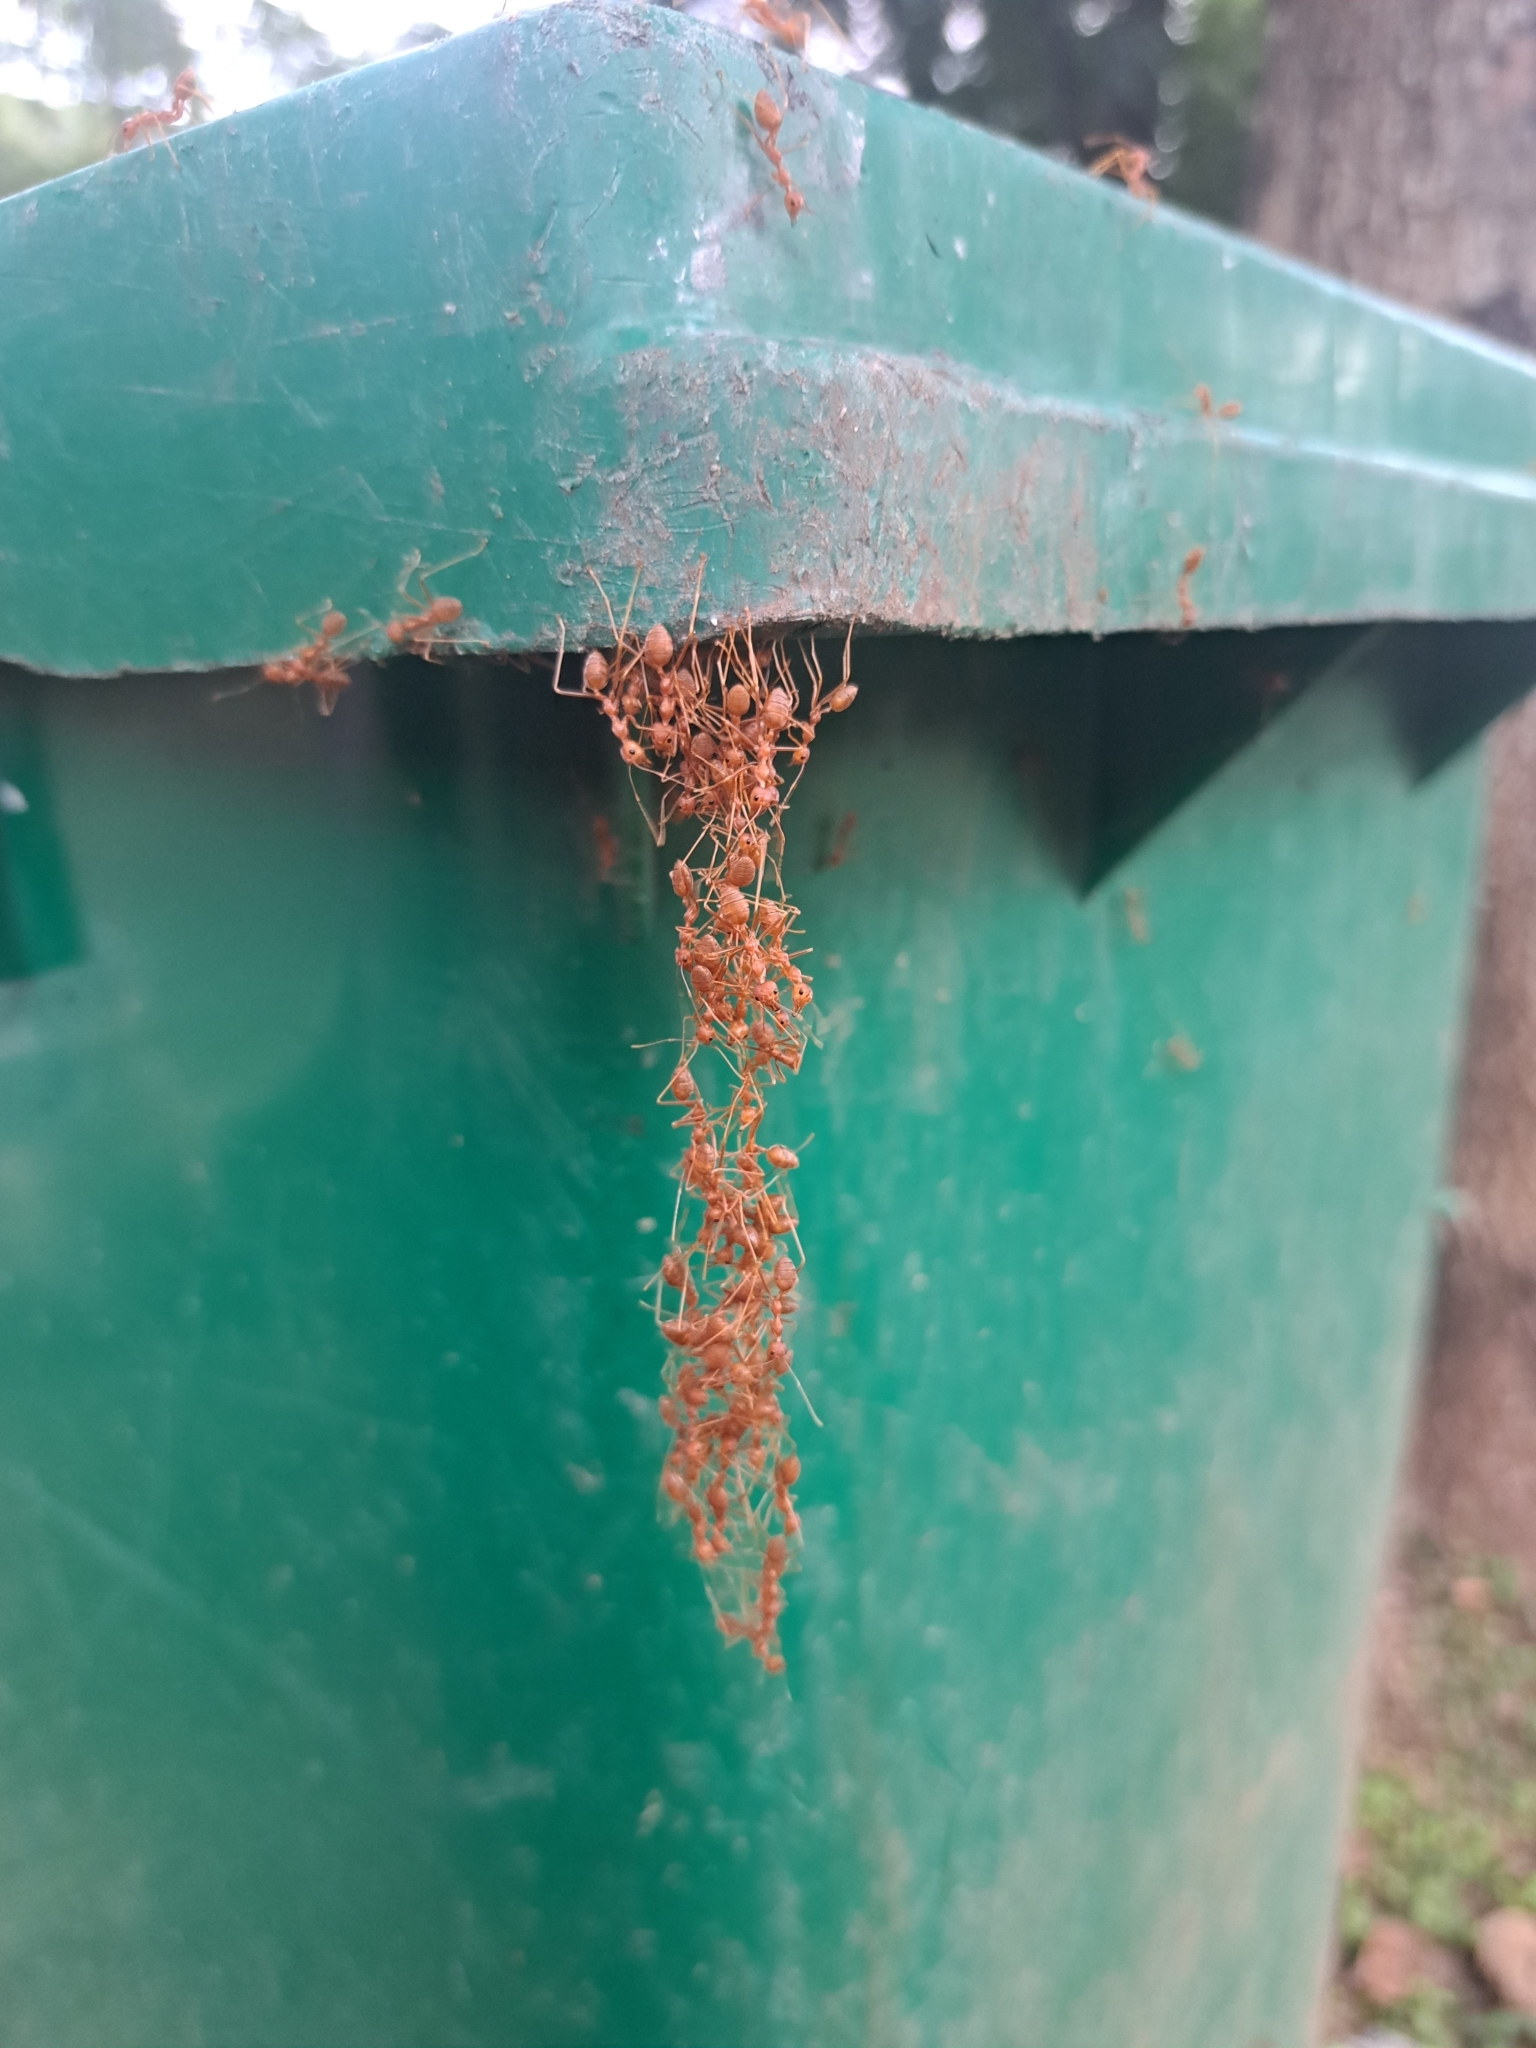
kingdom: Animalia
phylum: Arthropoda
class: Insecta
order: Hymenoptera
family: Formicidae
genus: Oecophylla
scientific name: Oecophylla smaragdina
